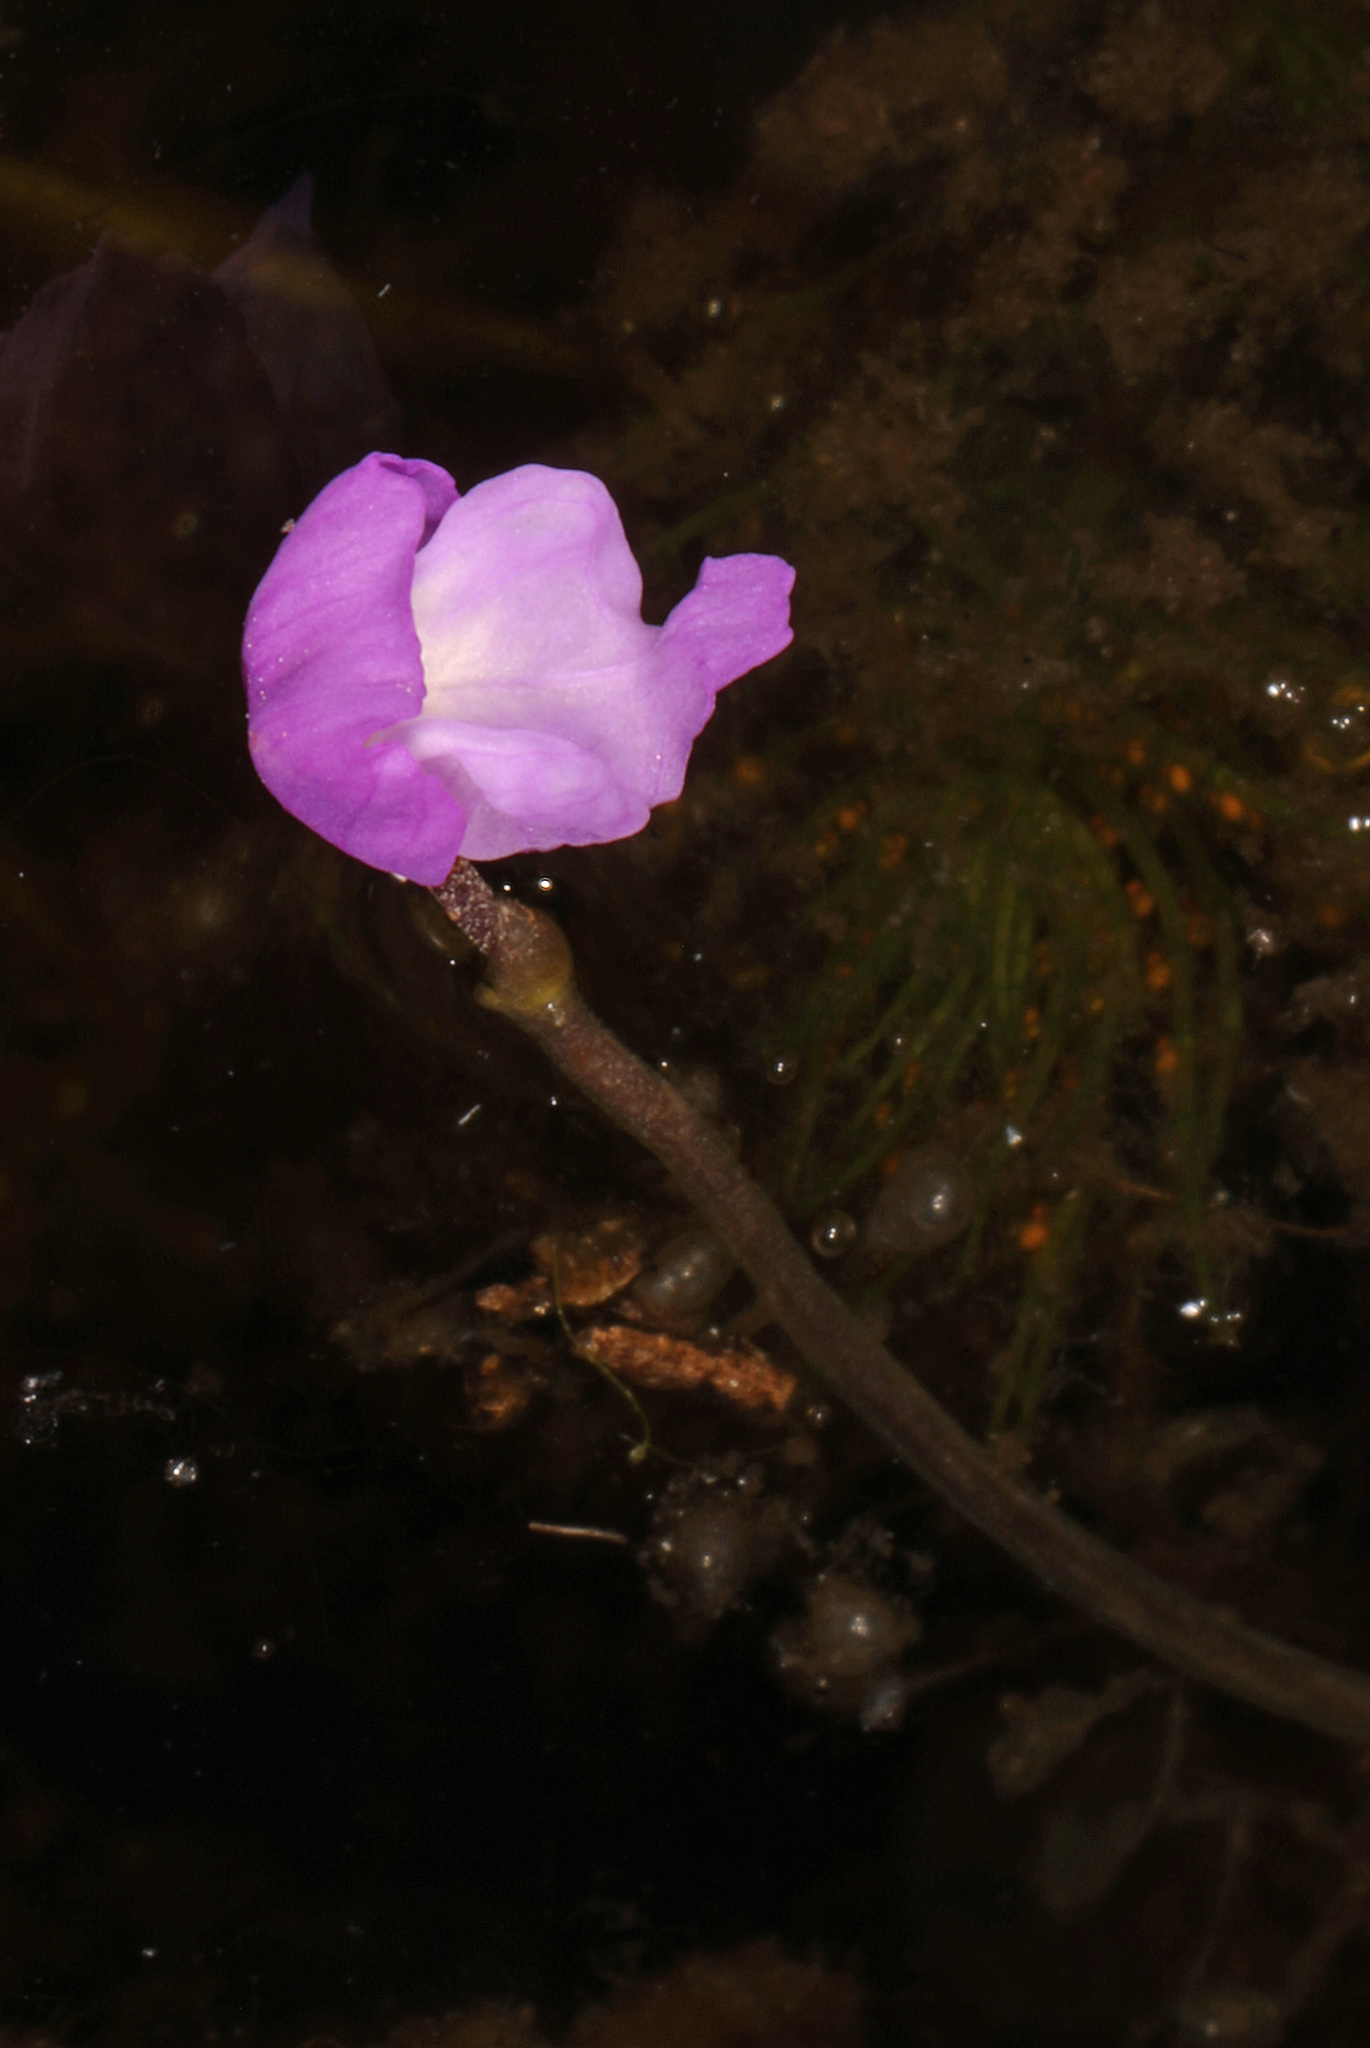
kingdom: Plantae
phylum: Tracheophyta
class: Magnoliopsida
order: Lamiales
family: Lentibulariaceae
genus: Utricularia
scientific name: Utricularia purpurea
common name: Eastern purple bladderwort
